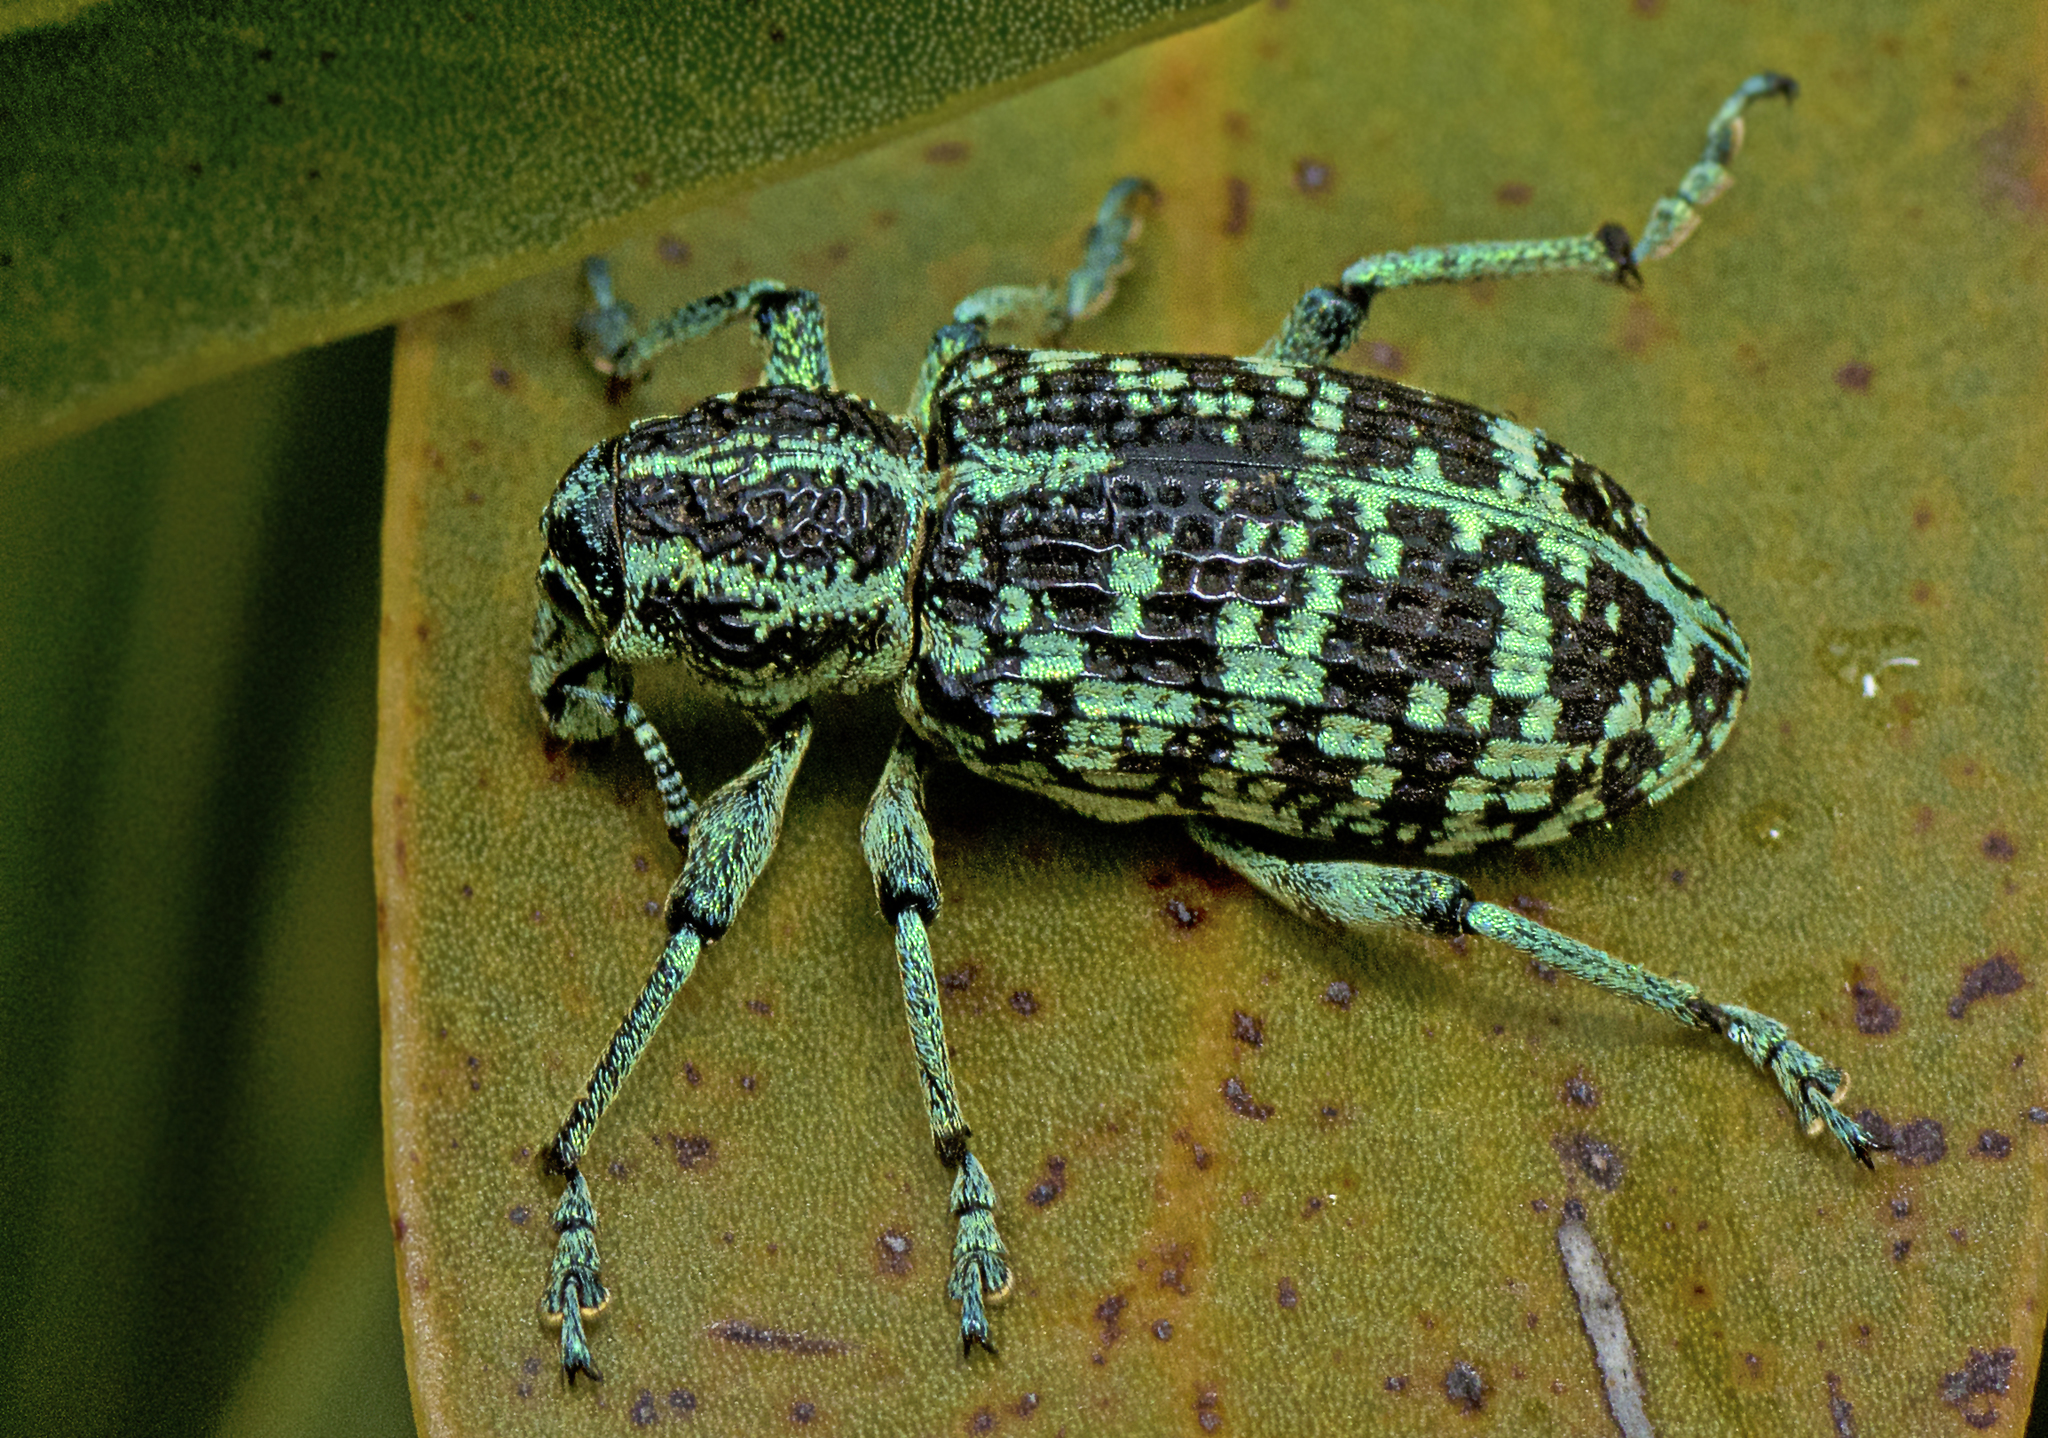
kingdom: Animalia
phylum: Arthropoda
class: Insecta
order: Coleoptera
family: Curculionidae
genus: Chrysolopus
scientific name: Chrysolopus spectabilis
